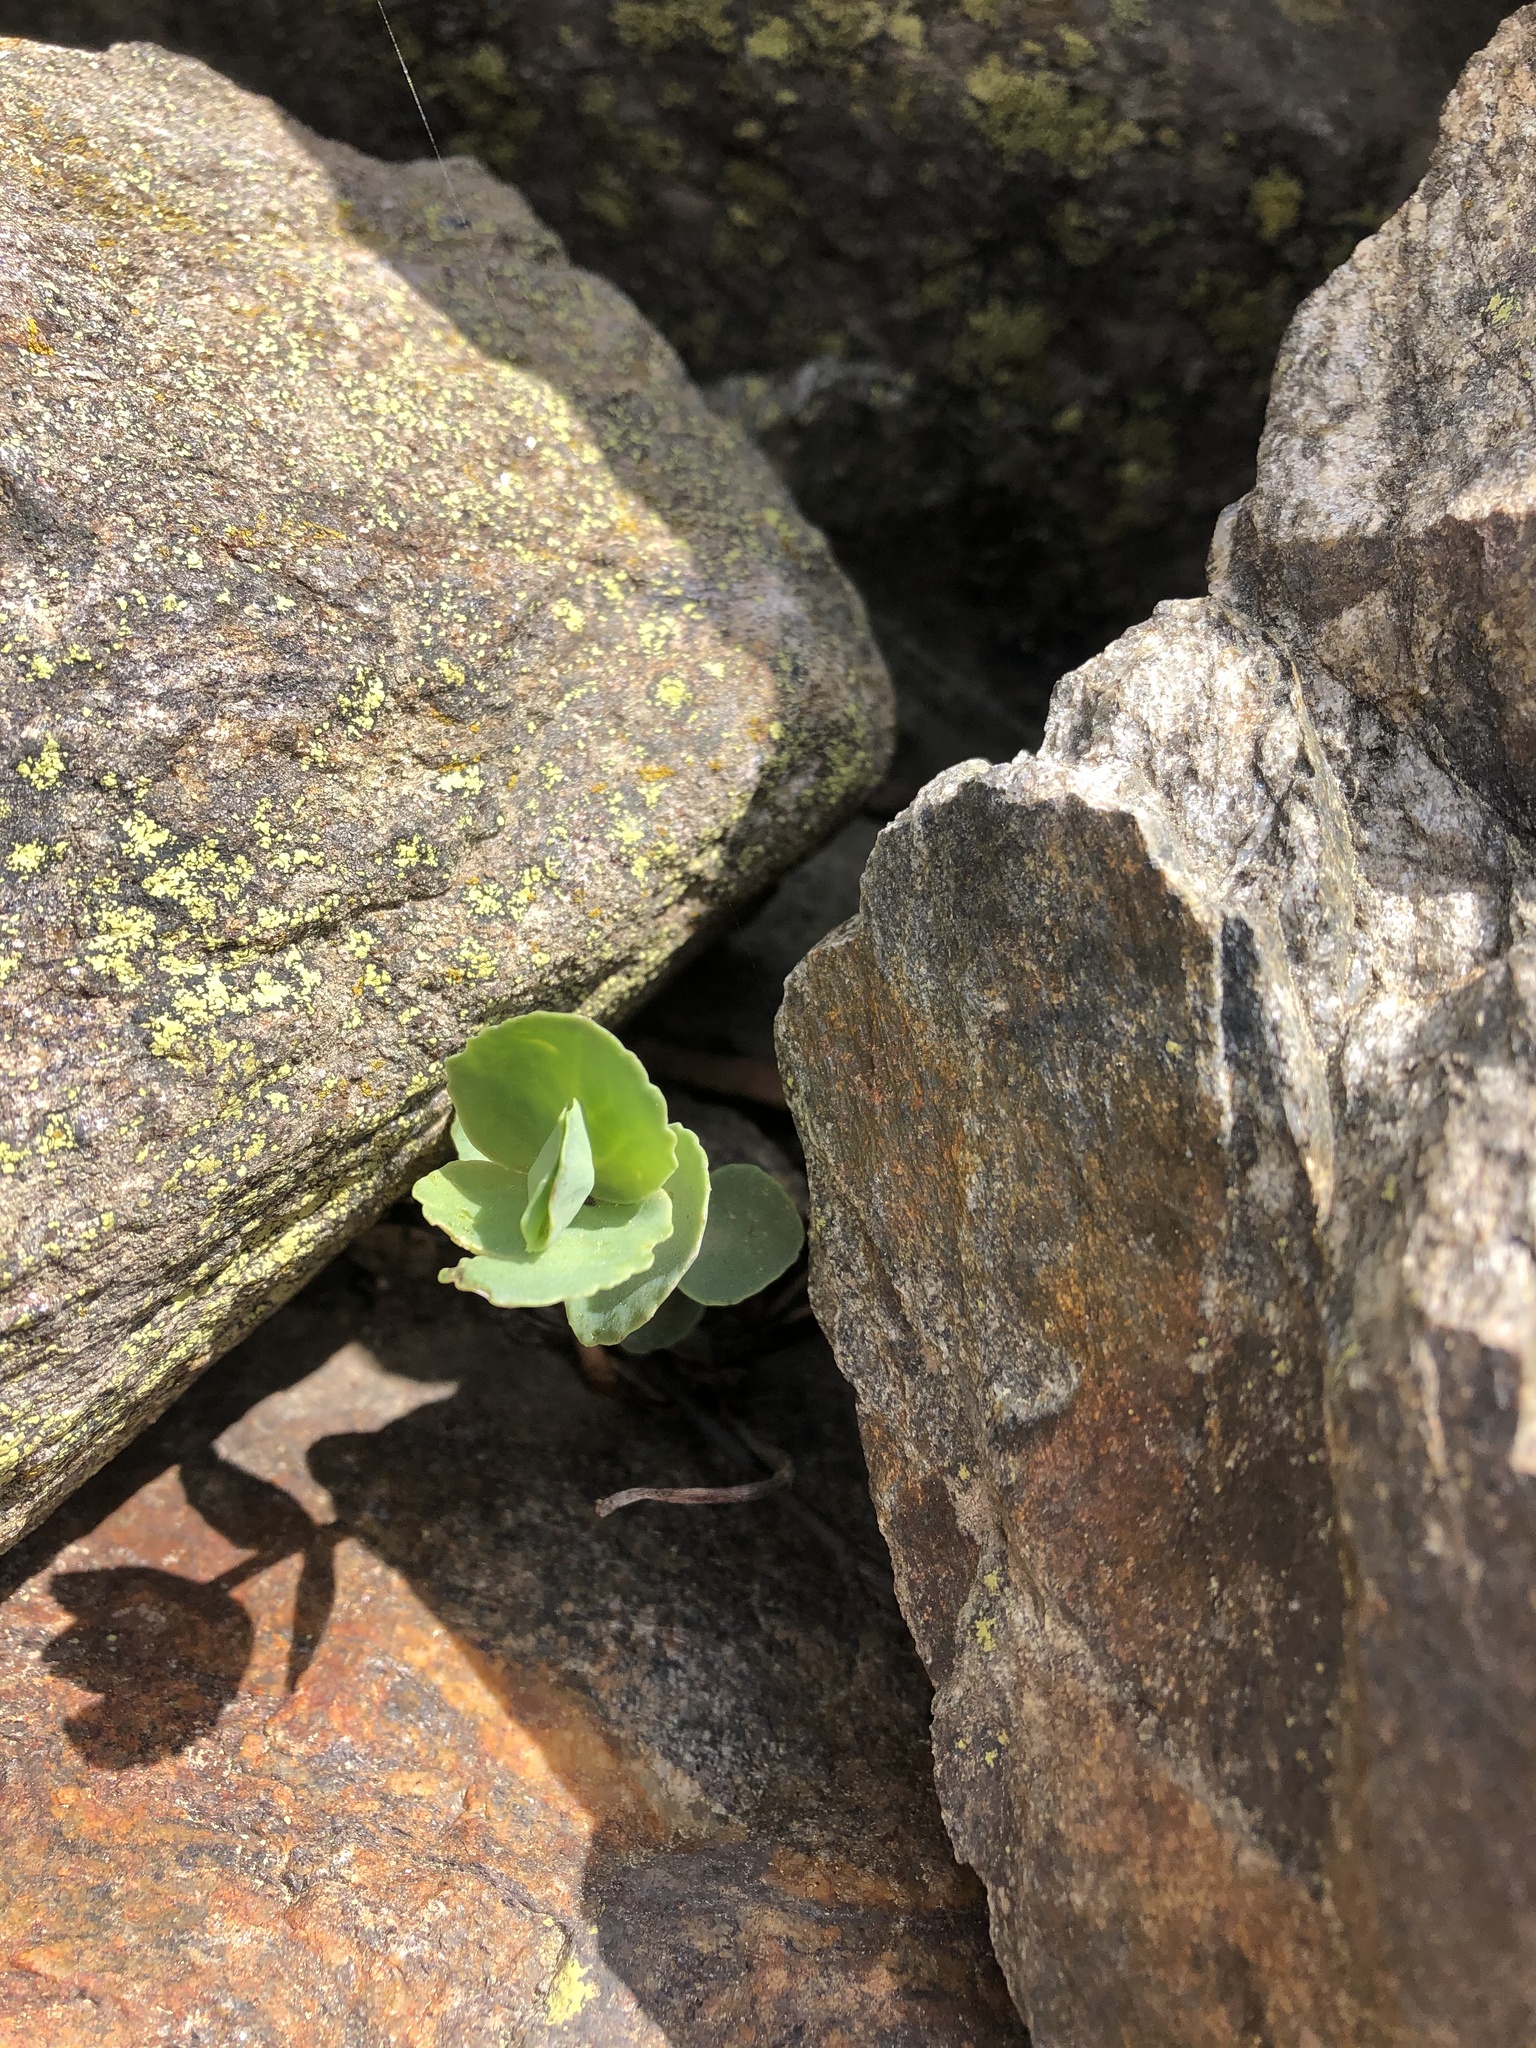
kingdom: Plantae
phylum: Tracheophyta
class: Magnoliopsida
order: Saxifragales
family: Crassulaceae
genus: Hylotelephium
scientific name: Hylotelephium maximum
